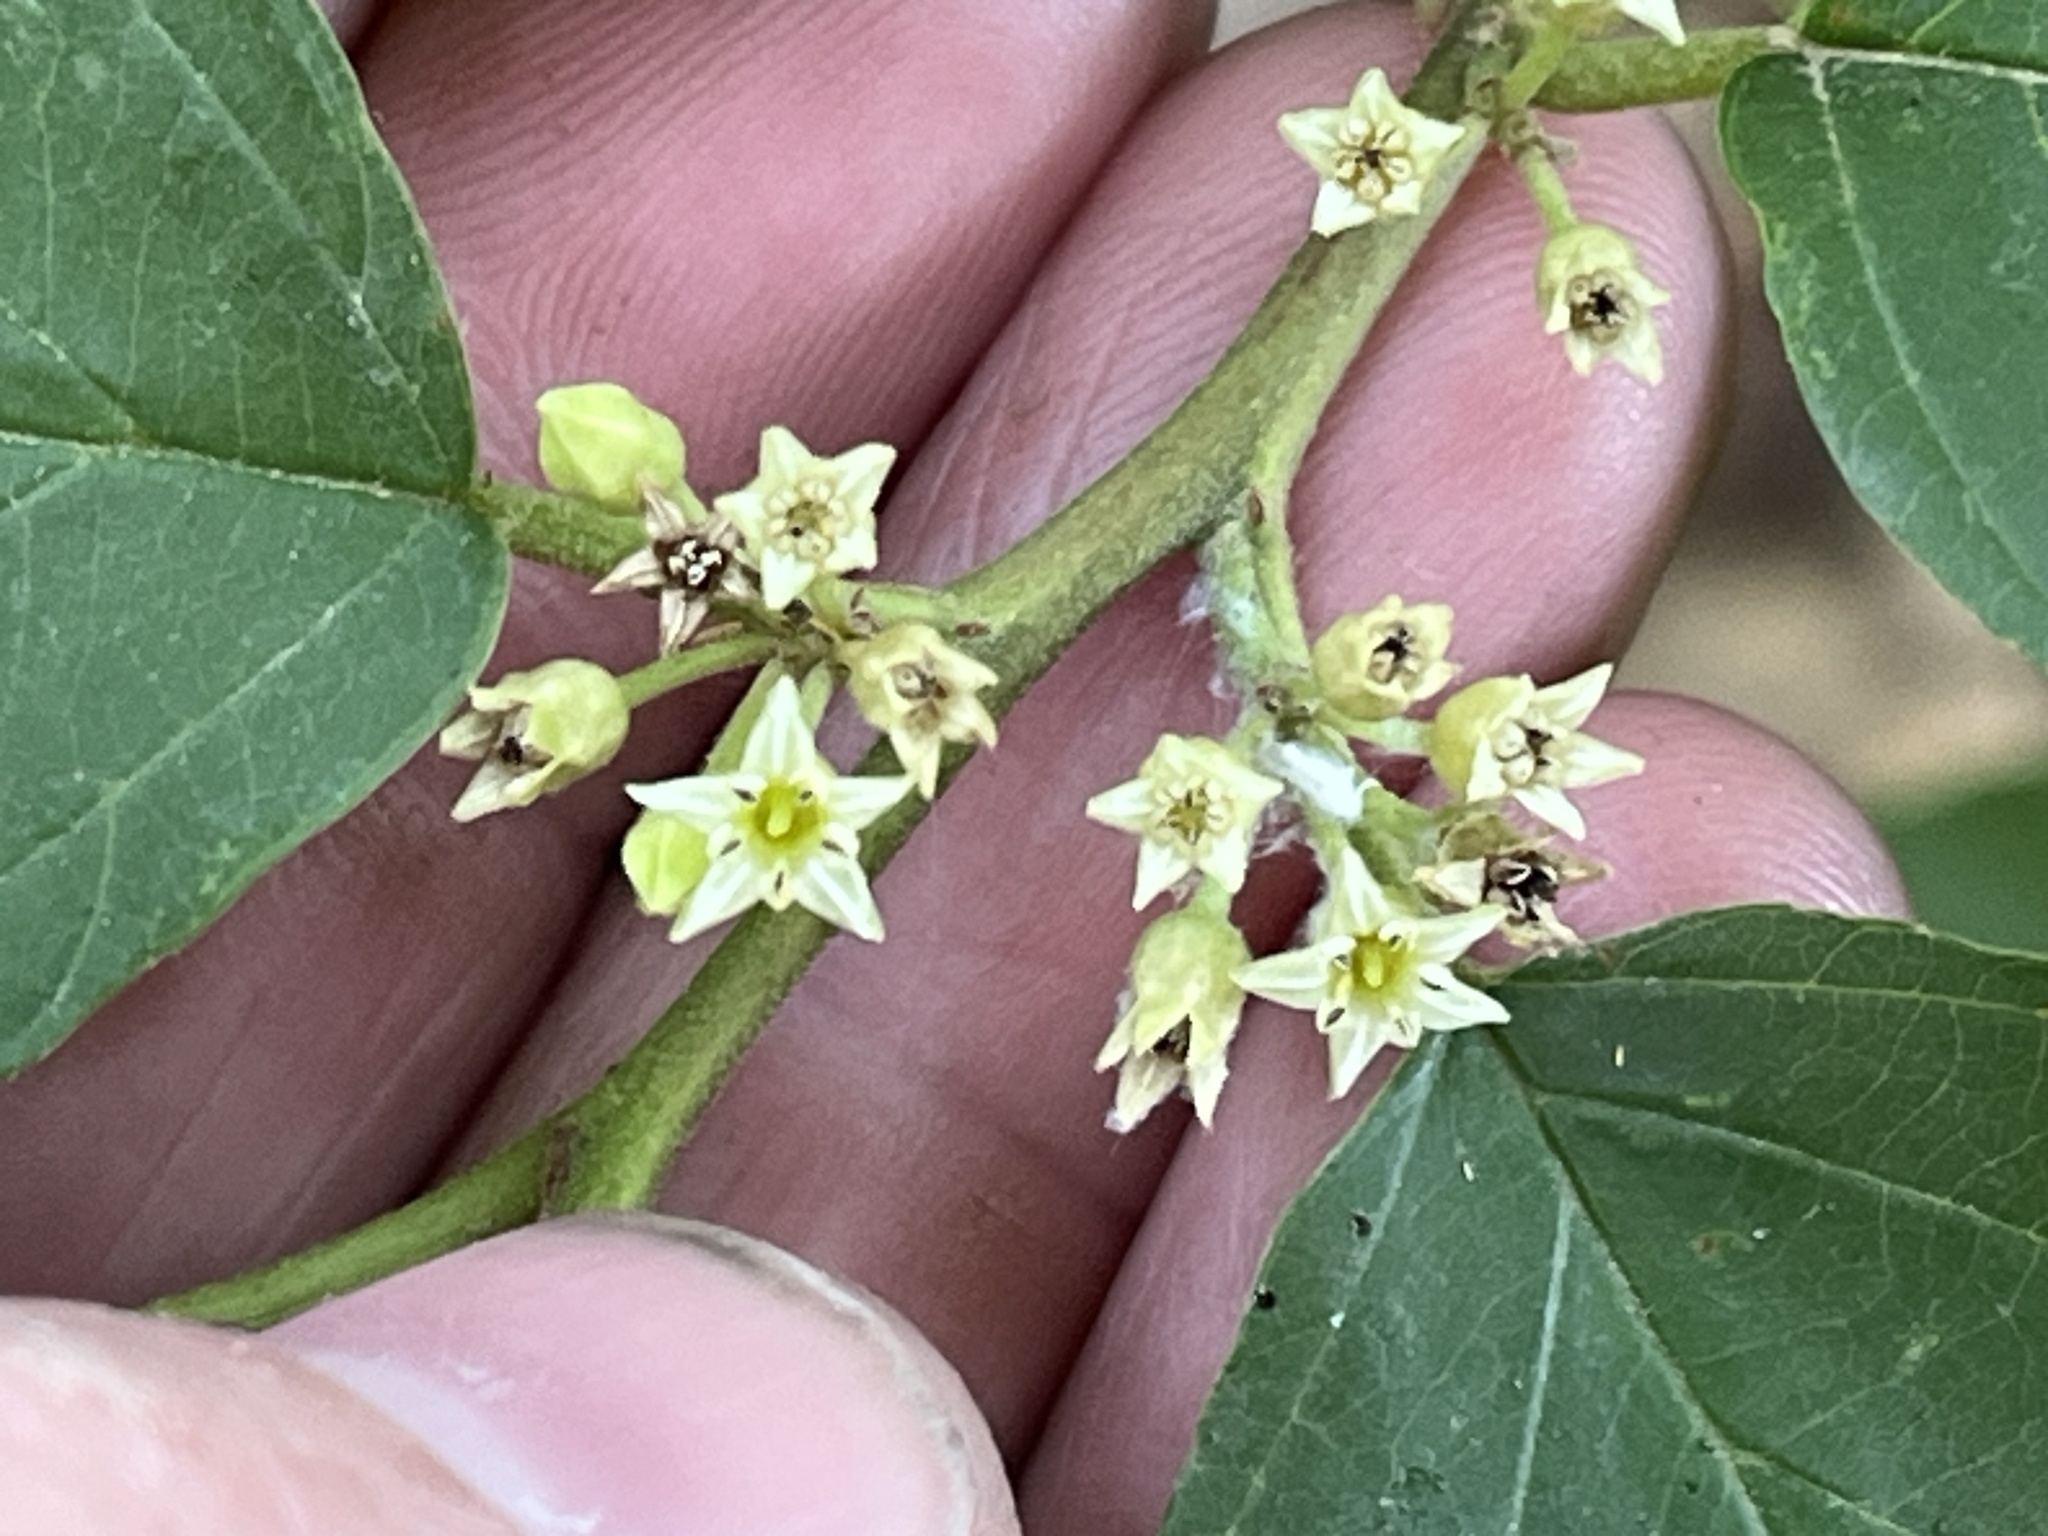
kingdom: Plantae
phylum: Tracheophyta
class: Magnoliopsida
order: Rosales
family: Rhamnaceae
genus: Frangula
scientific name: Frangula caroliniana
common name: Carolina buckthorn
